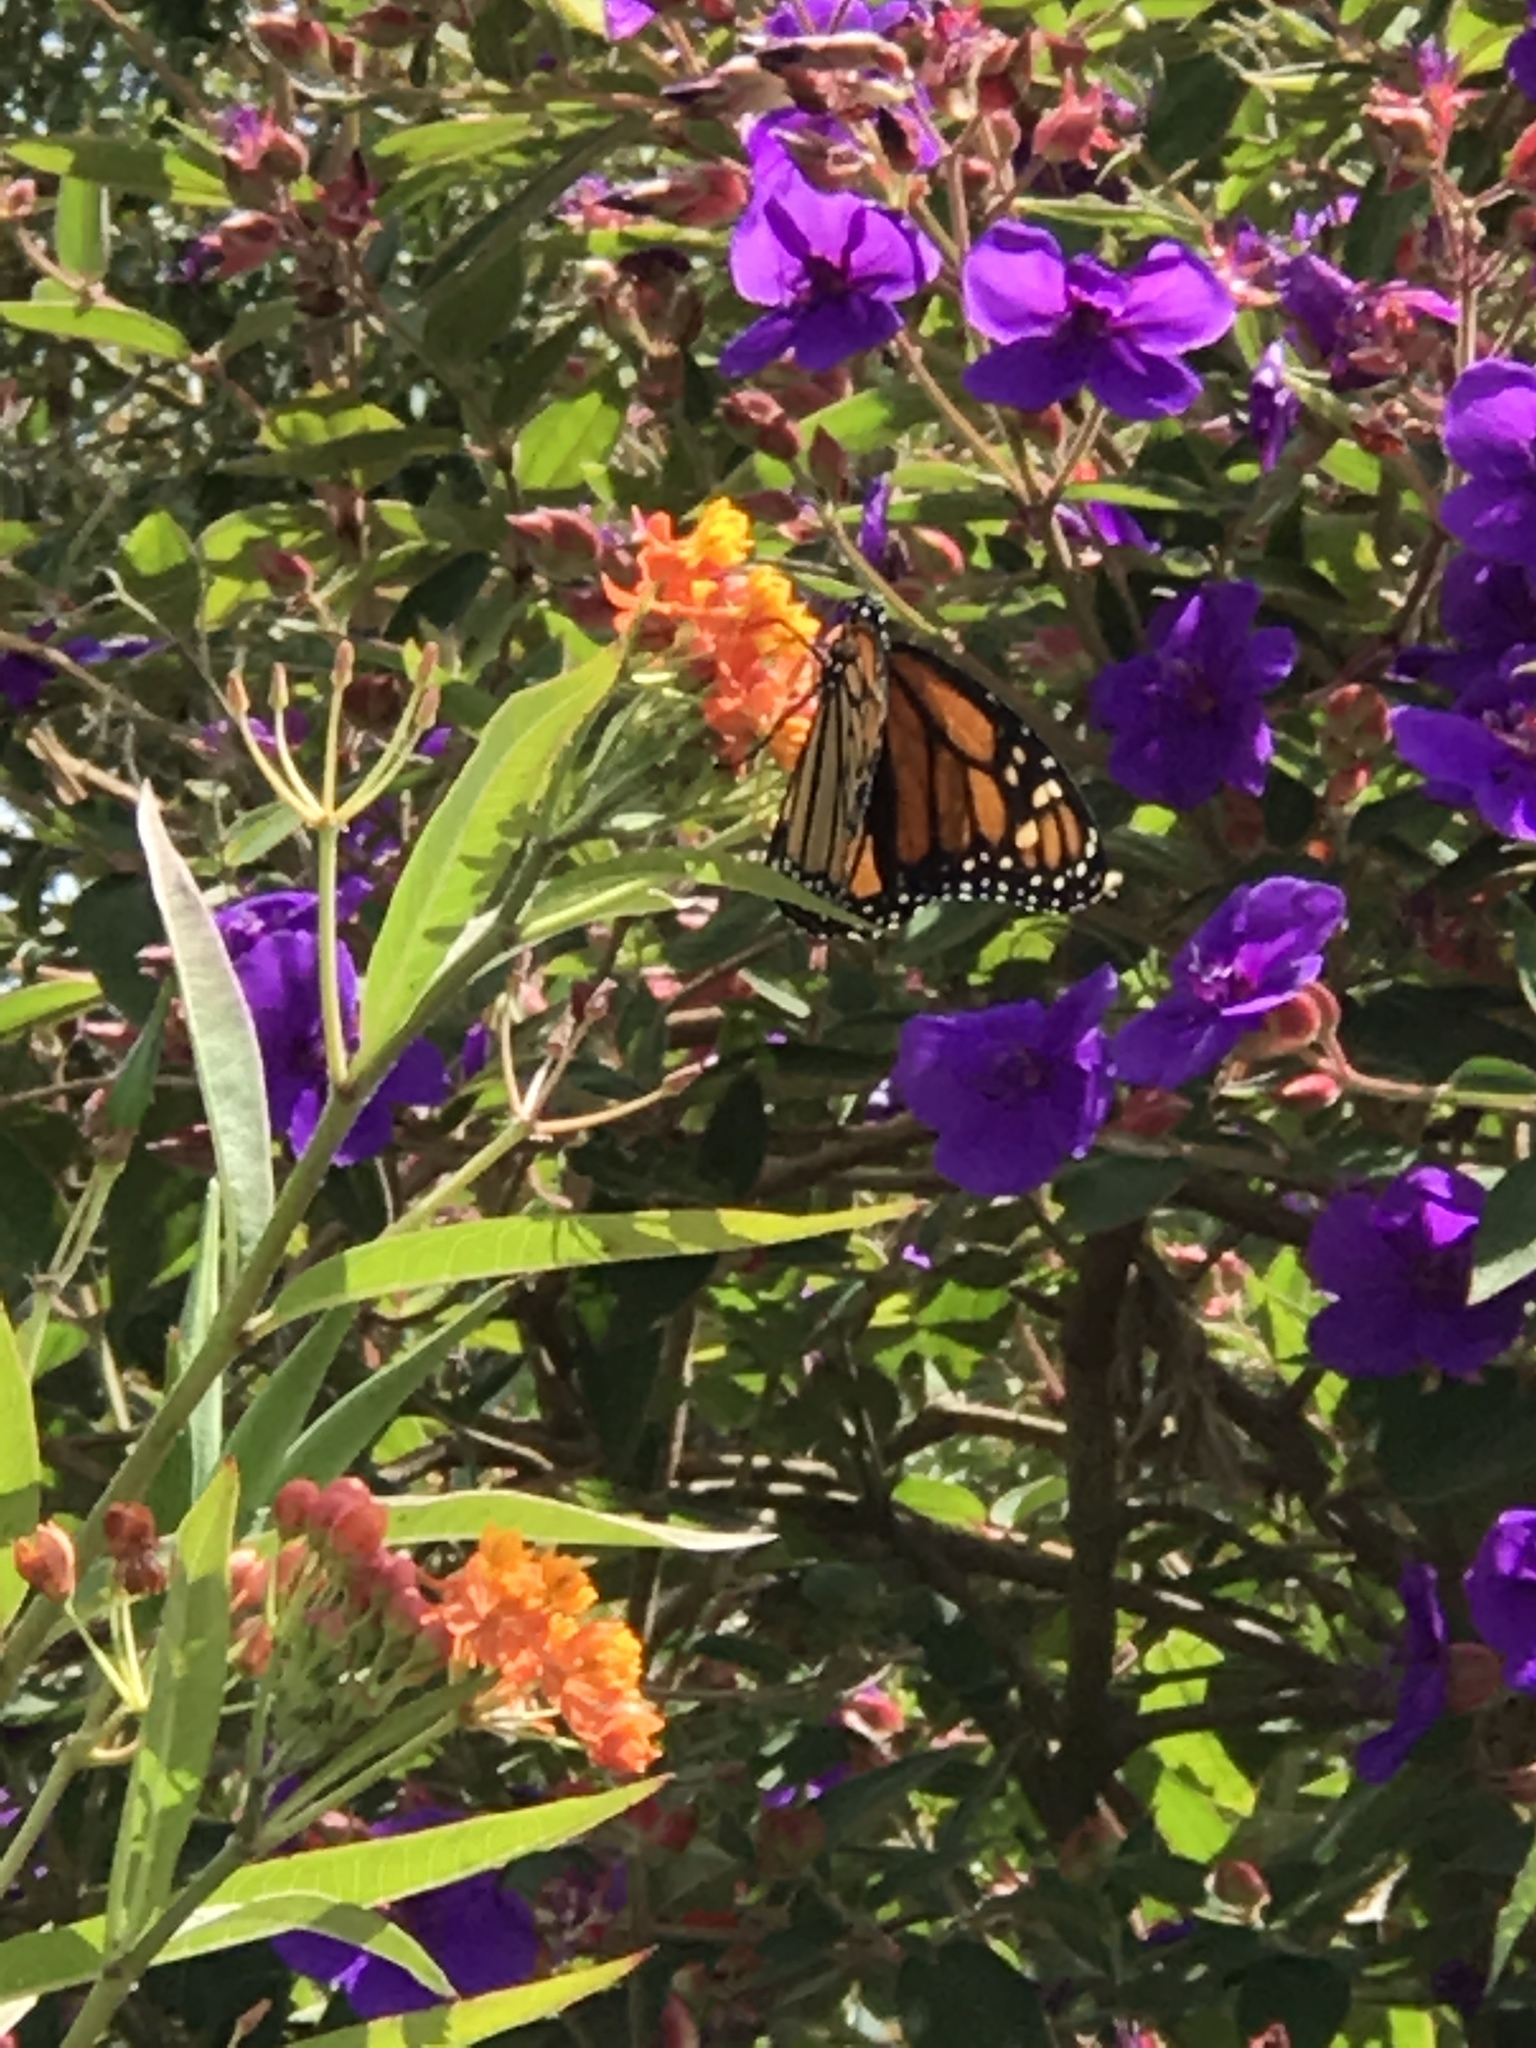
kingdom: Animalia
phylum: Arthropoda
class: Insecta
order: Lepidoptera
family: Nymphalidae
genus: Danaus
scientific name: Danaus plexippus
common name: Monarch
